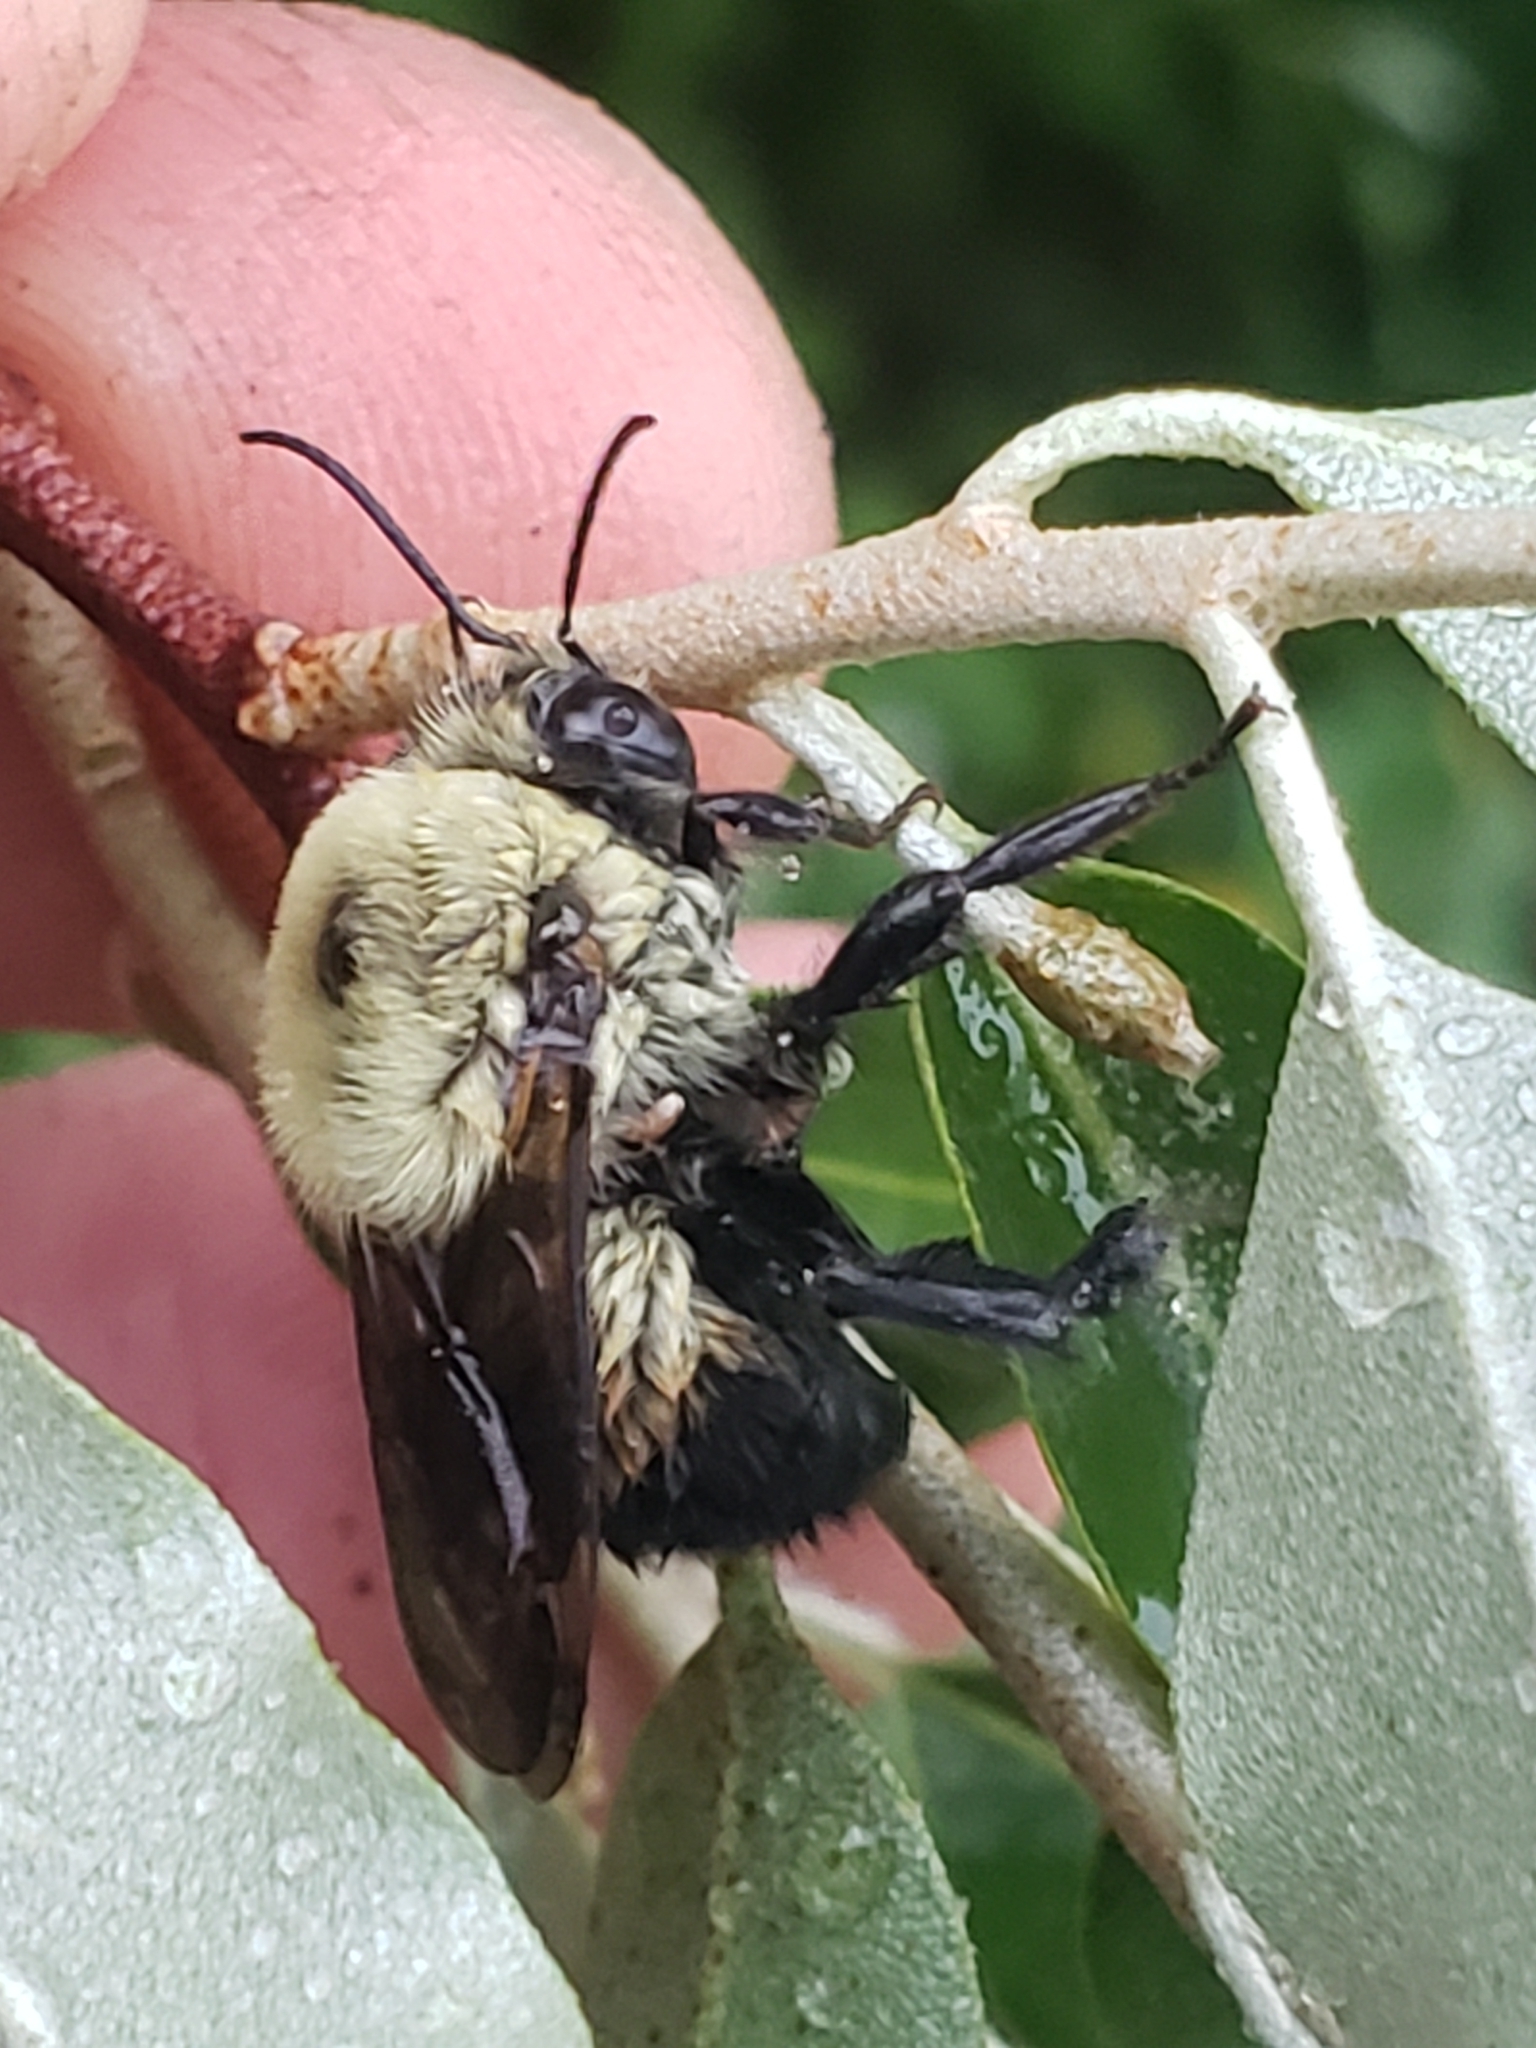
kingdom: Animalia
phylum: Arthropoda
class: Insecta
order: Hymenoptera
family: Apidae
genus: Bombus
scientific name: Bombus griseocollis
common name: Brown-belted bumble bee
